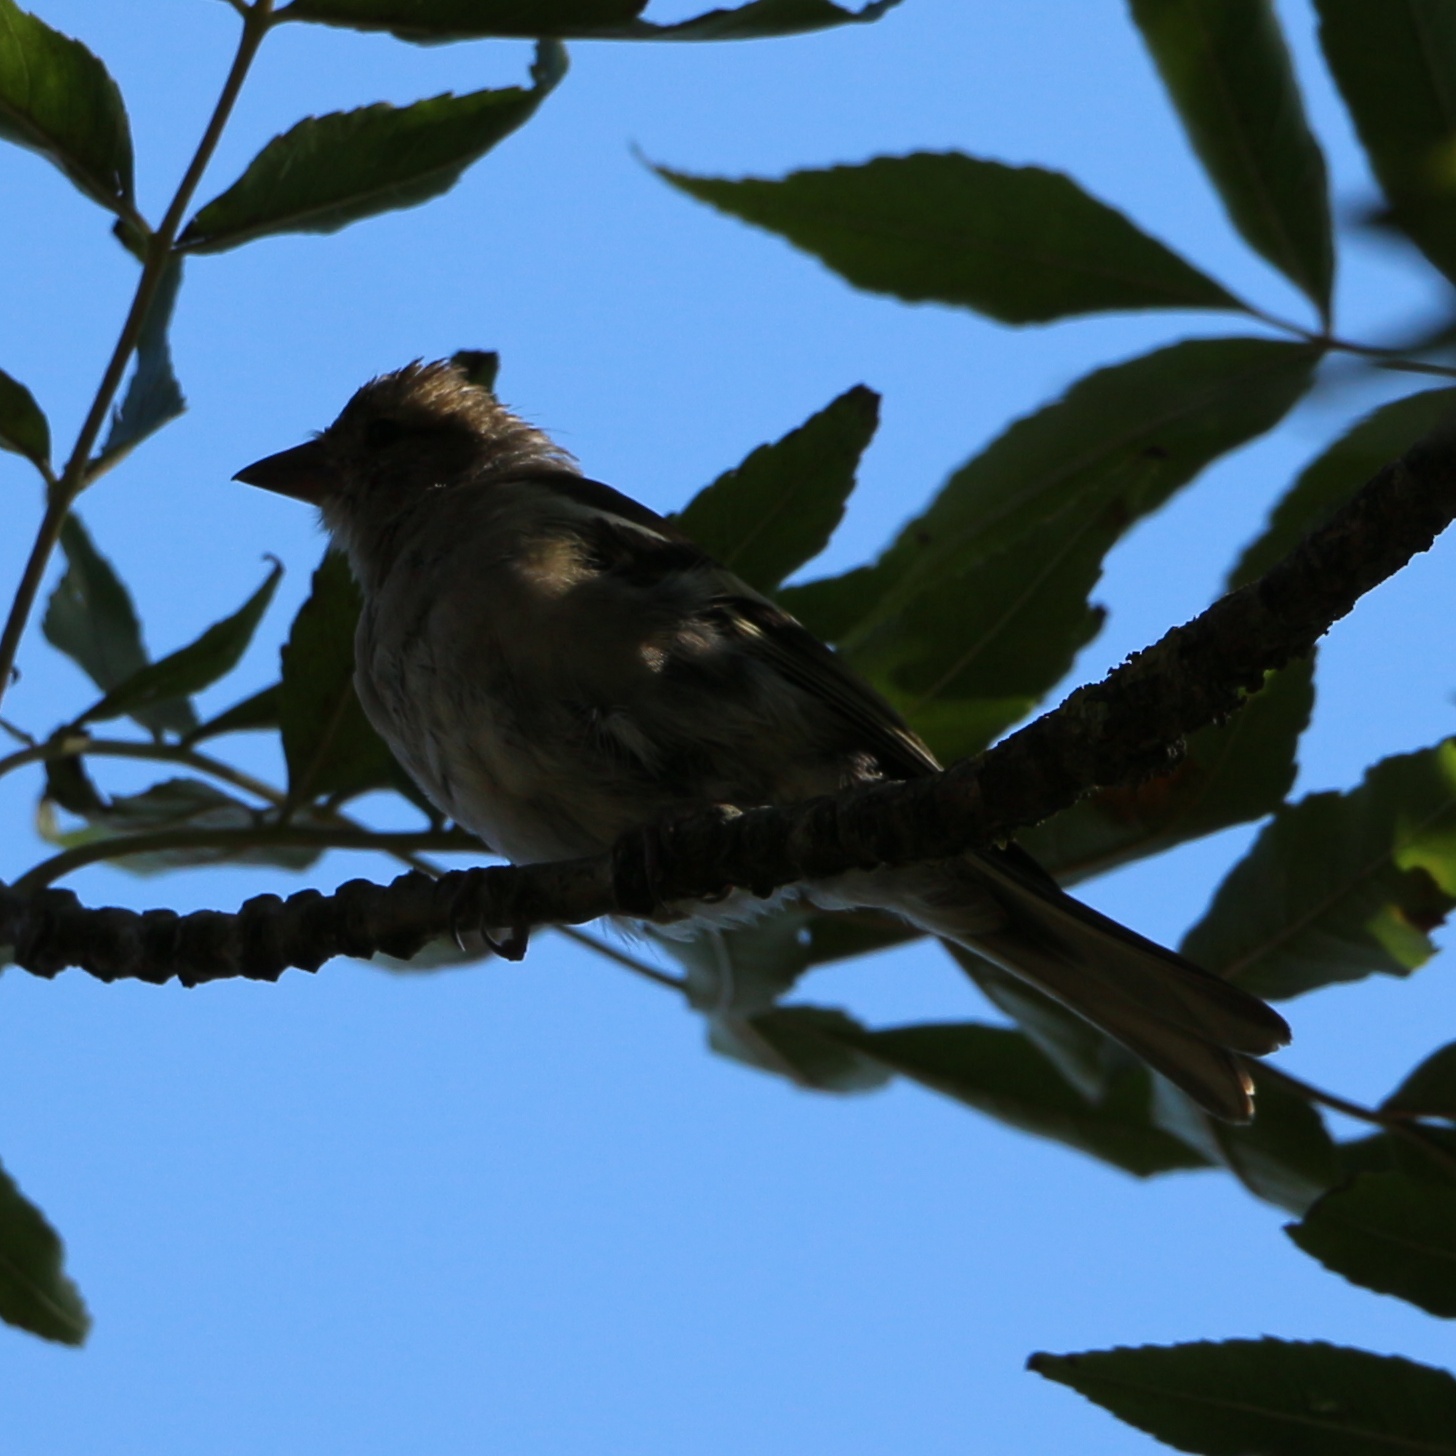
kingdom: Animalia
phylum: Chordata
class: Aves
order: Passeriformes
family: Fringillidae
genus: Fringilla
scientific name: Fringilla coelebs
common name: Common chaffinch
